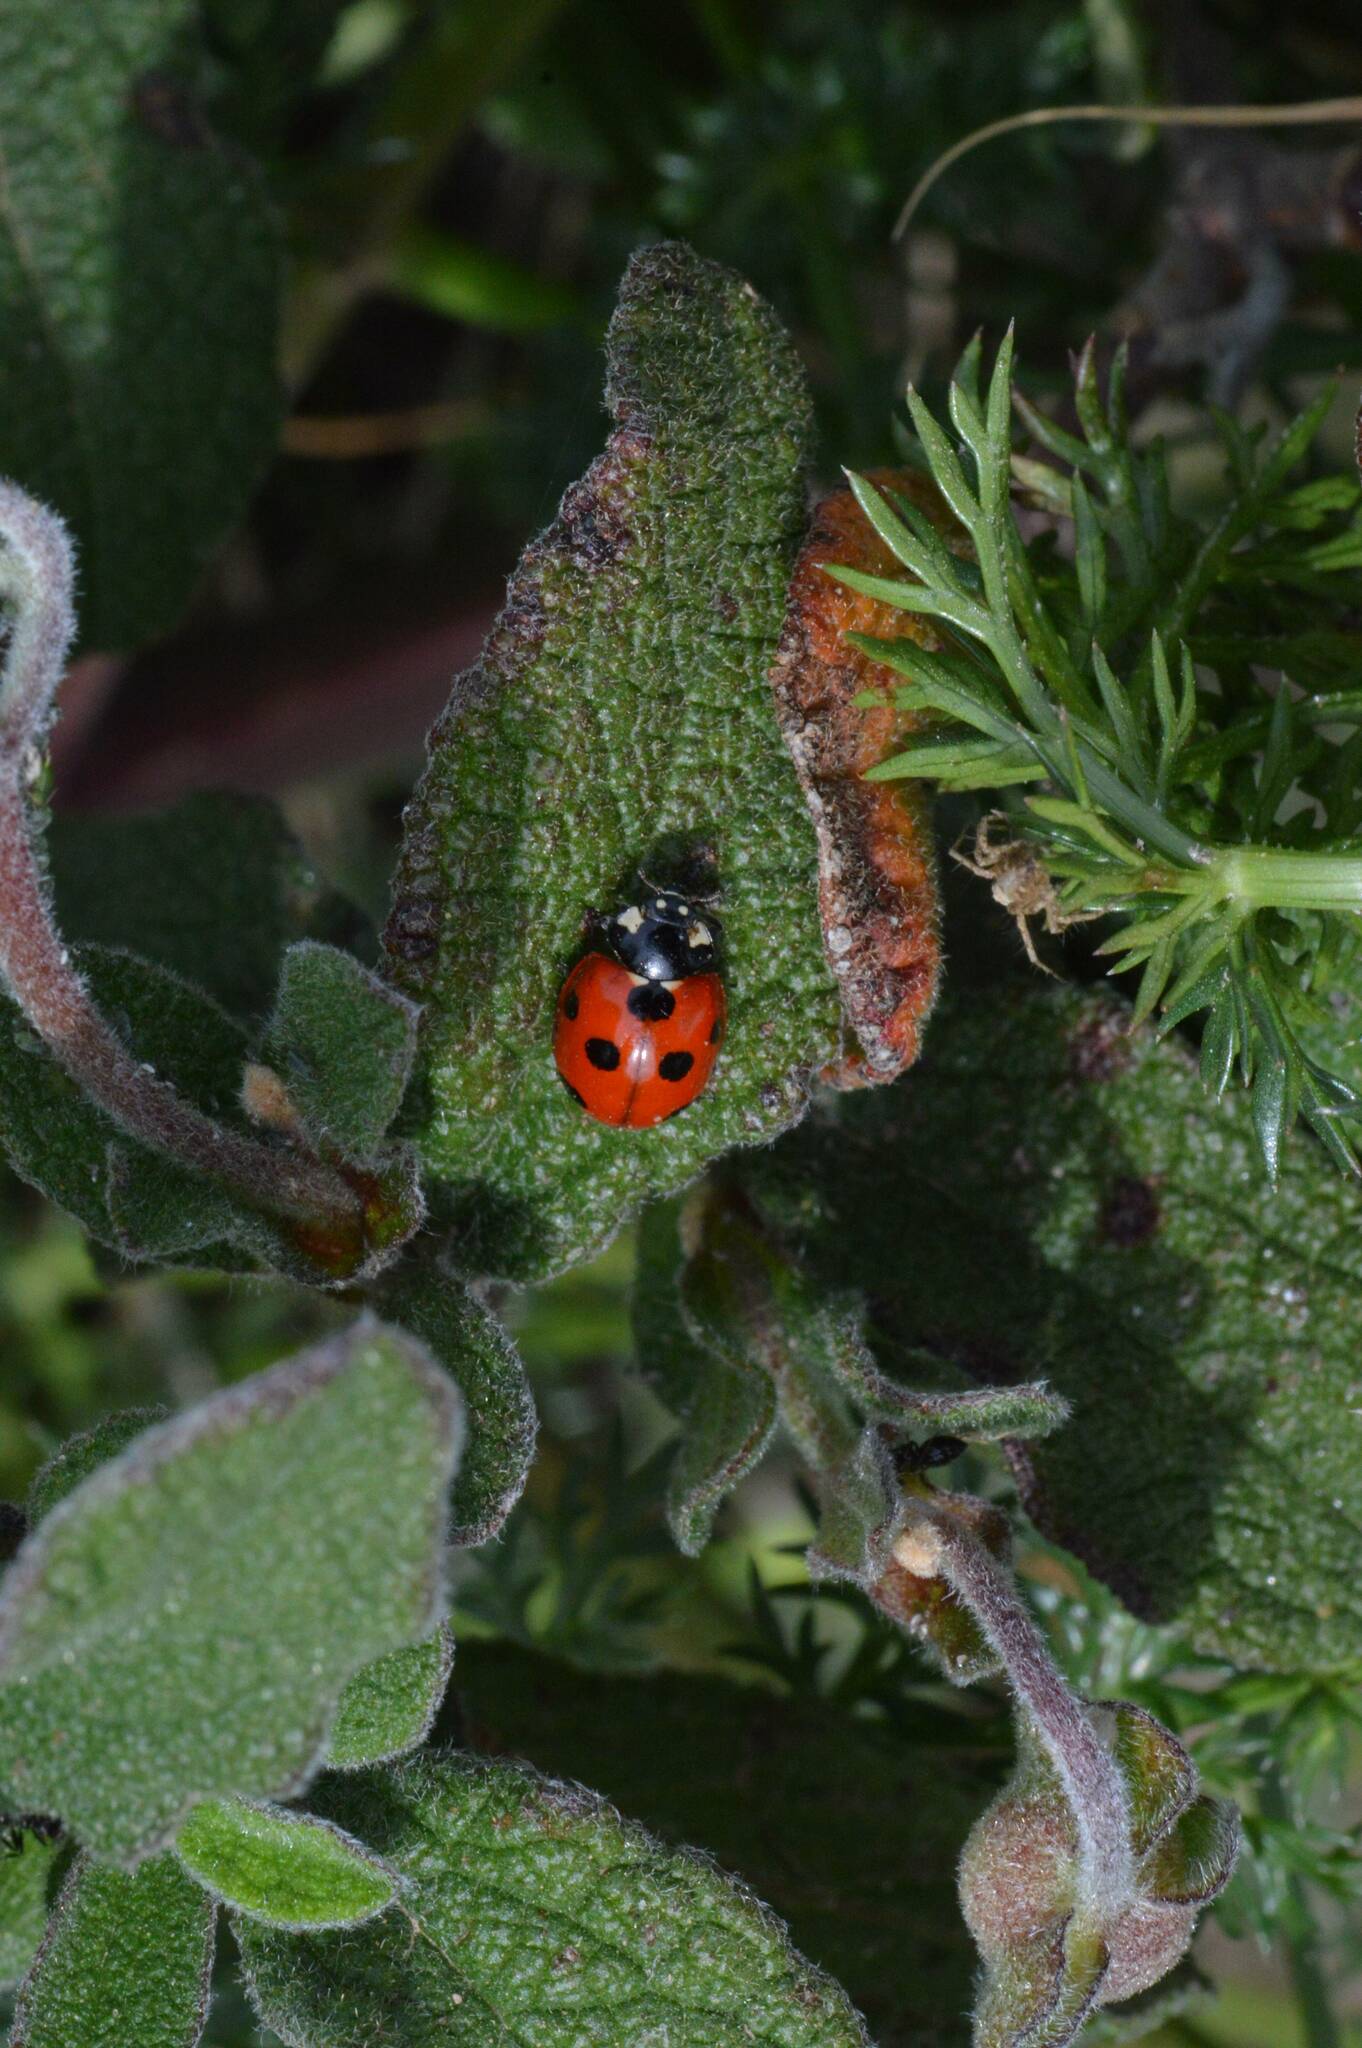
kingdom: Animalia
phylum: Arthropoda
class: Insecta
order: Coleoptera
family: Coccinellidae
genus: Coccinella
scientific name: Coccinella algerica
